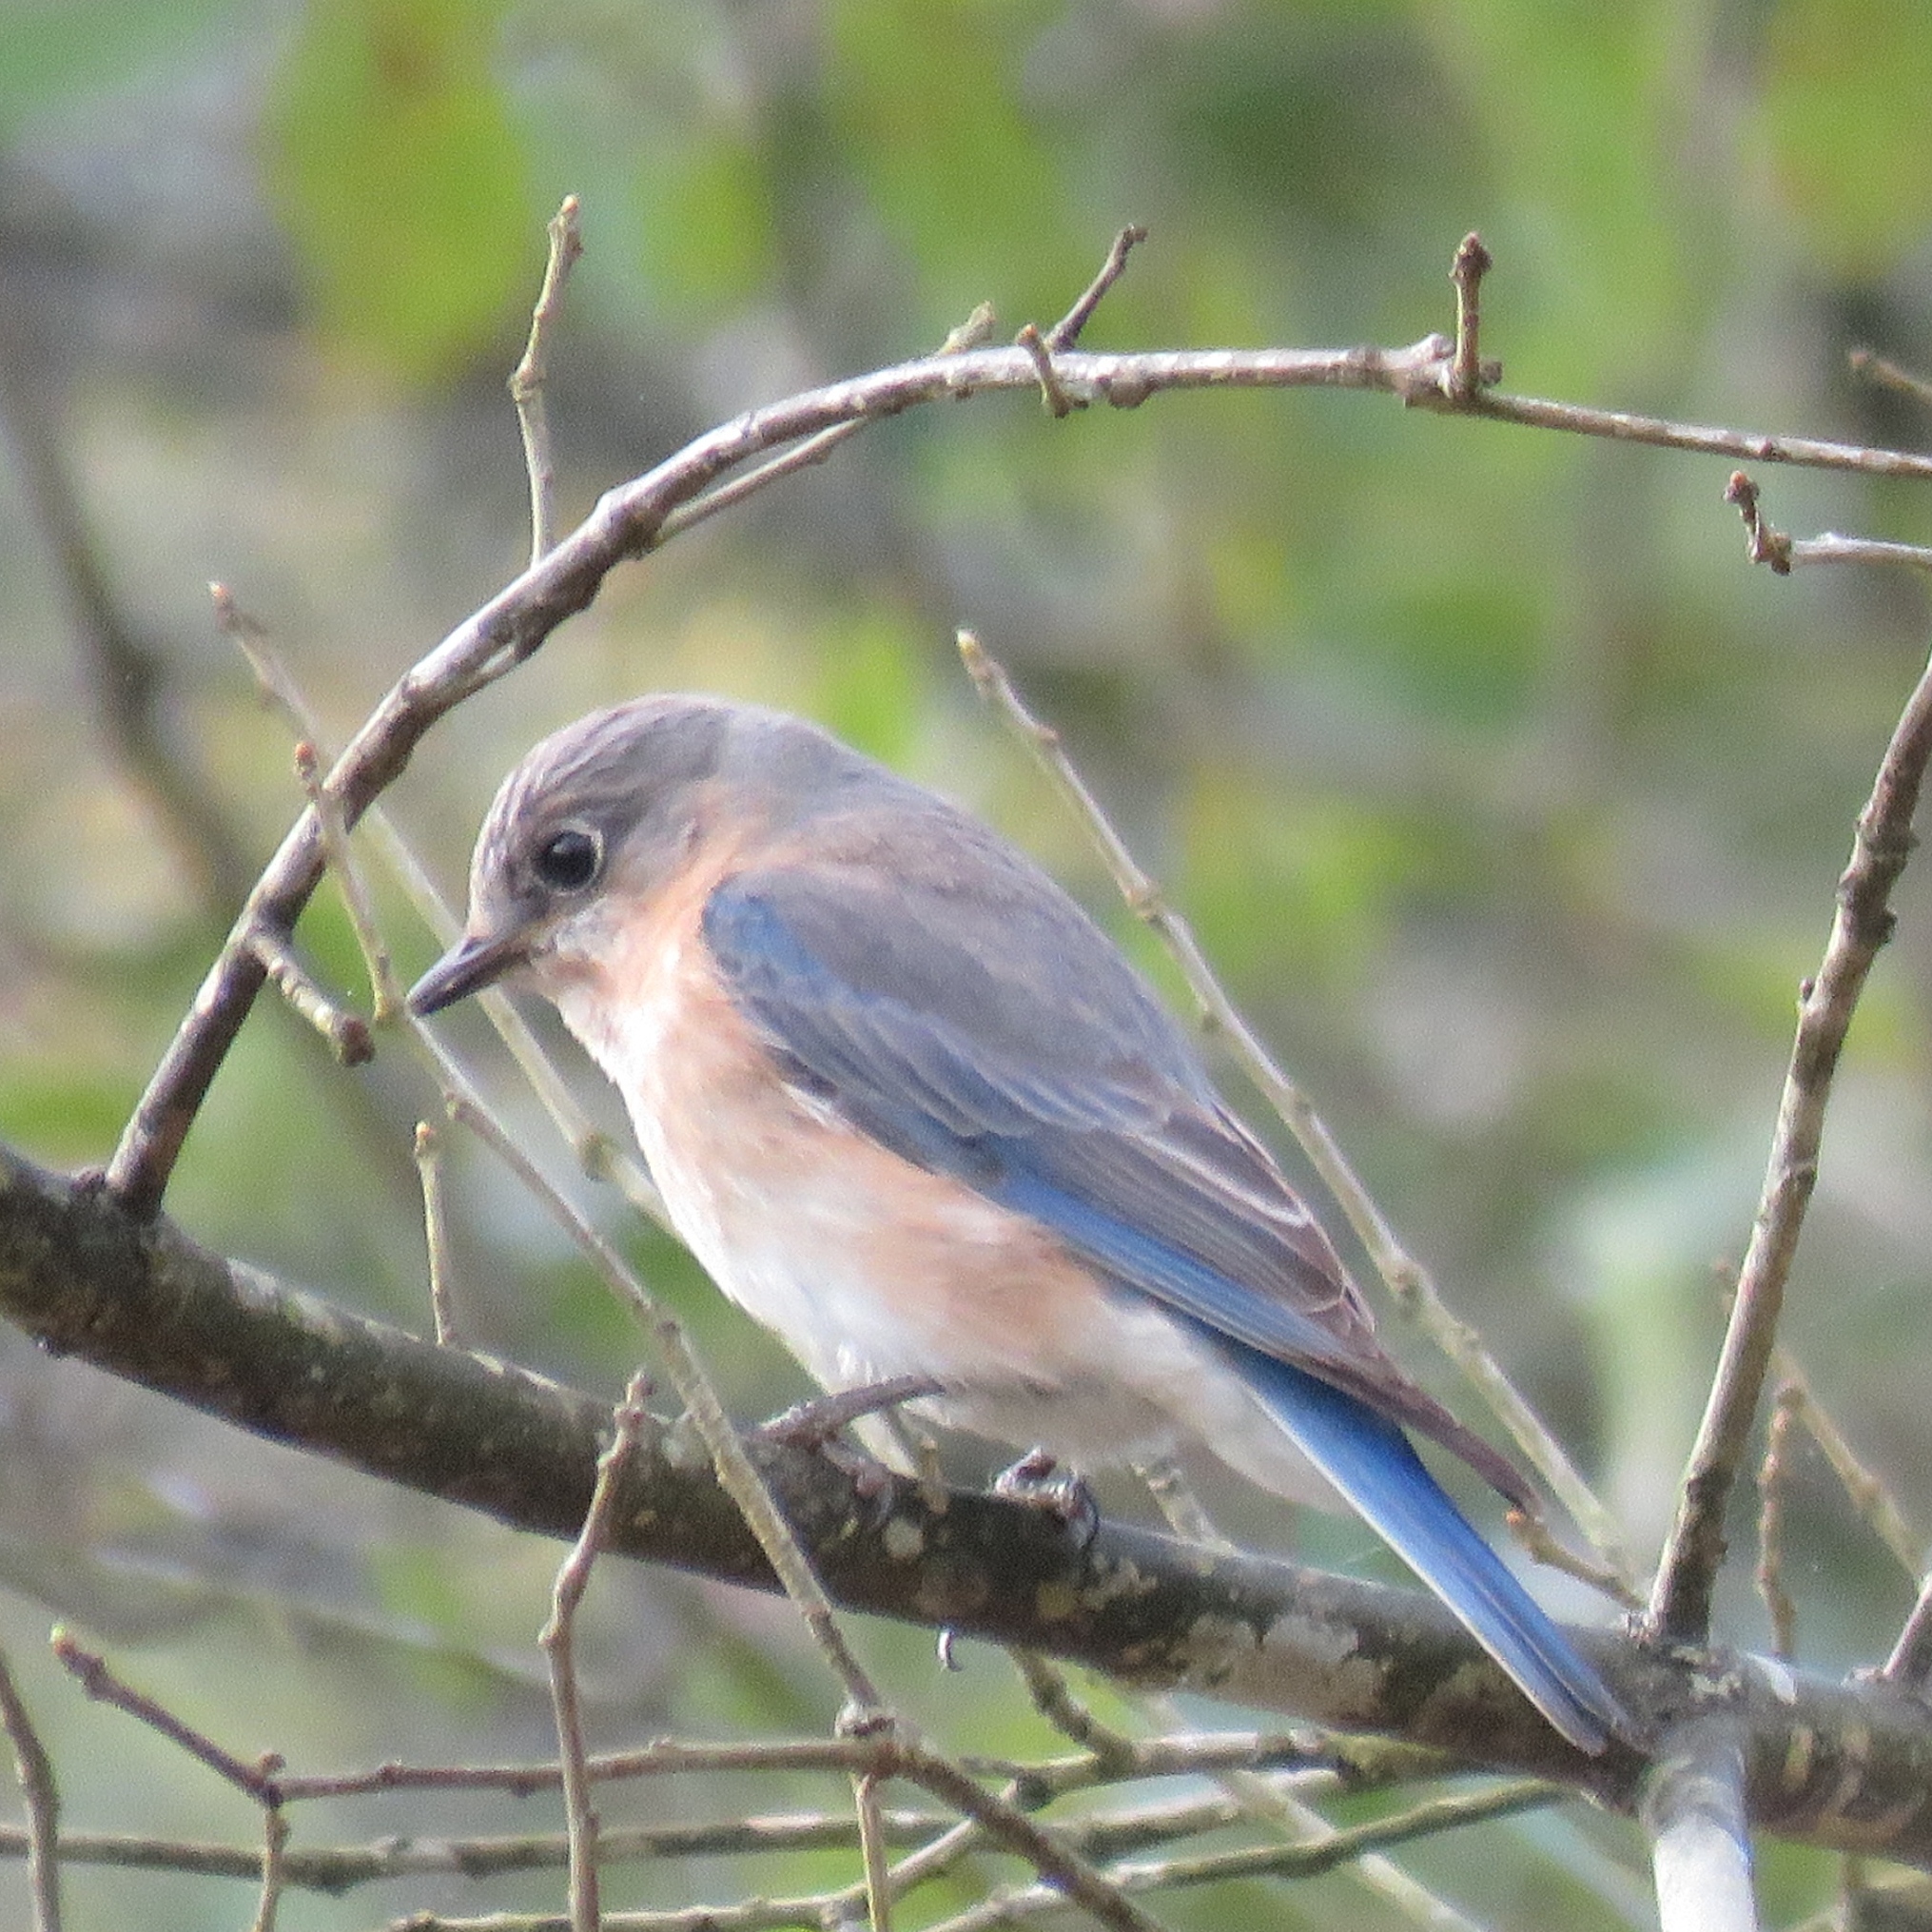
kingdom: Animalia
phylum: Chordata
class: Aves
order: Passeriformes
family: Turdidae
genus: Sialia
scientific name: Sialia sialis
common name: Eastern bluebird
